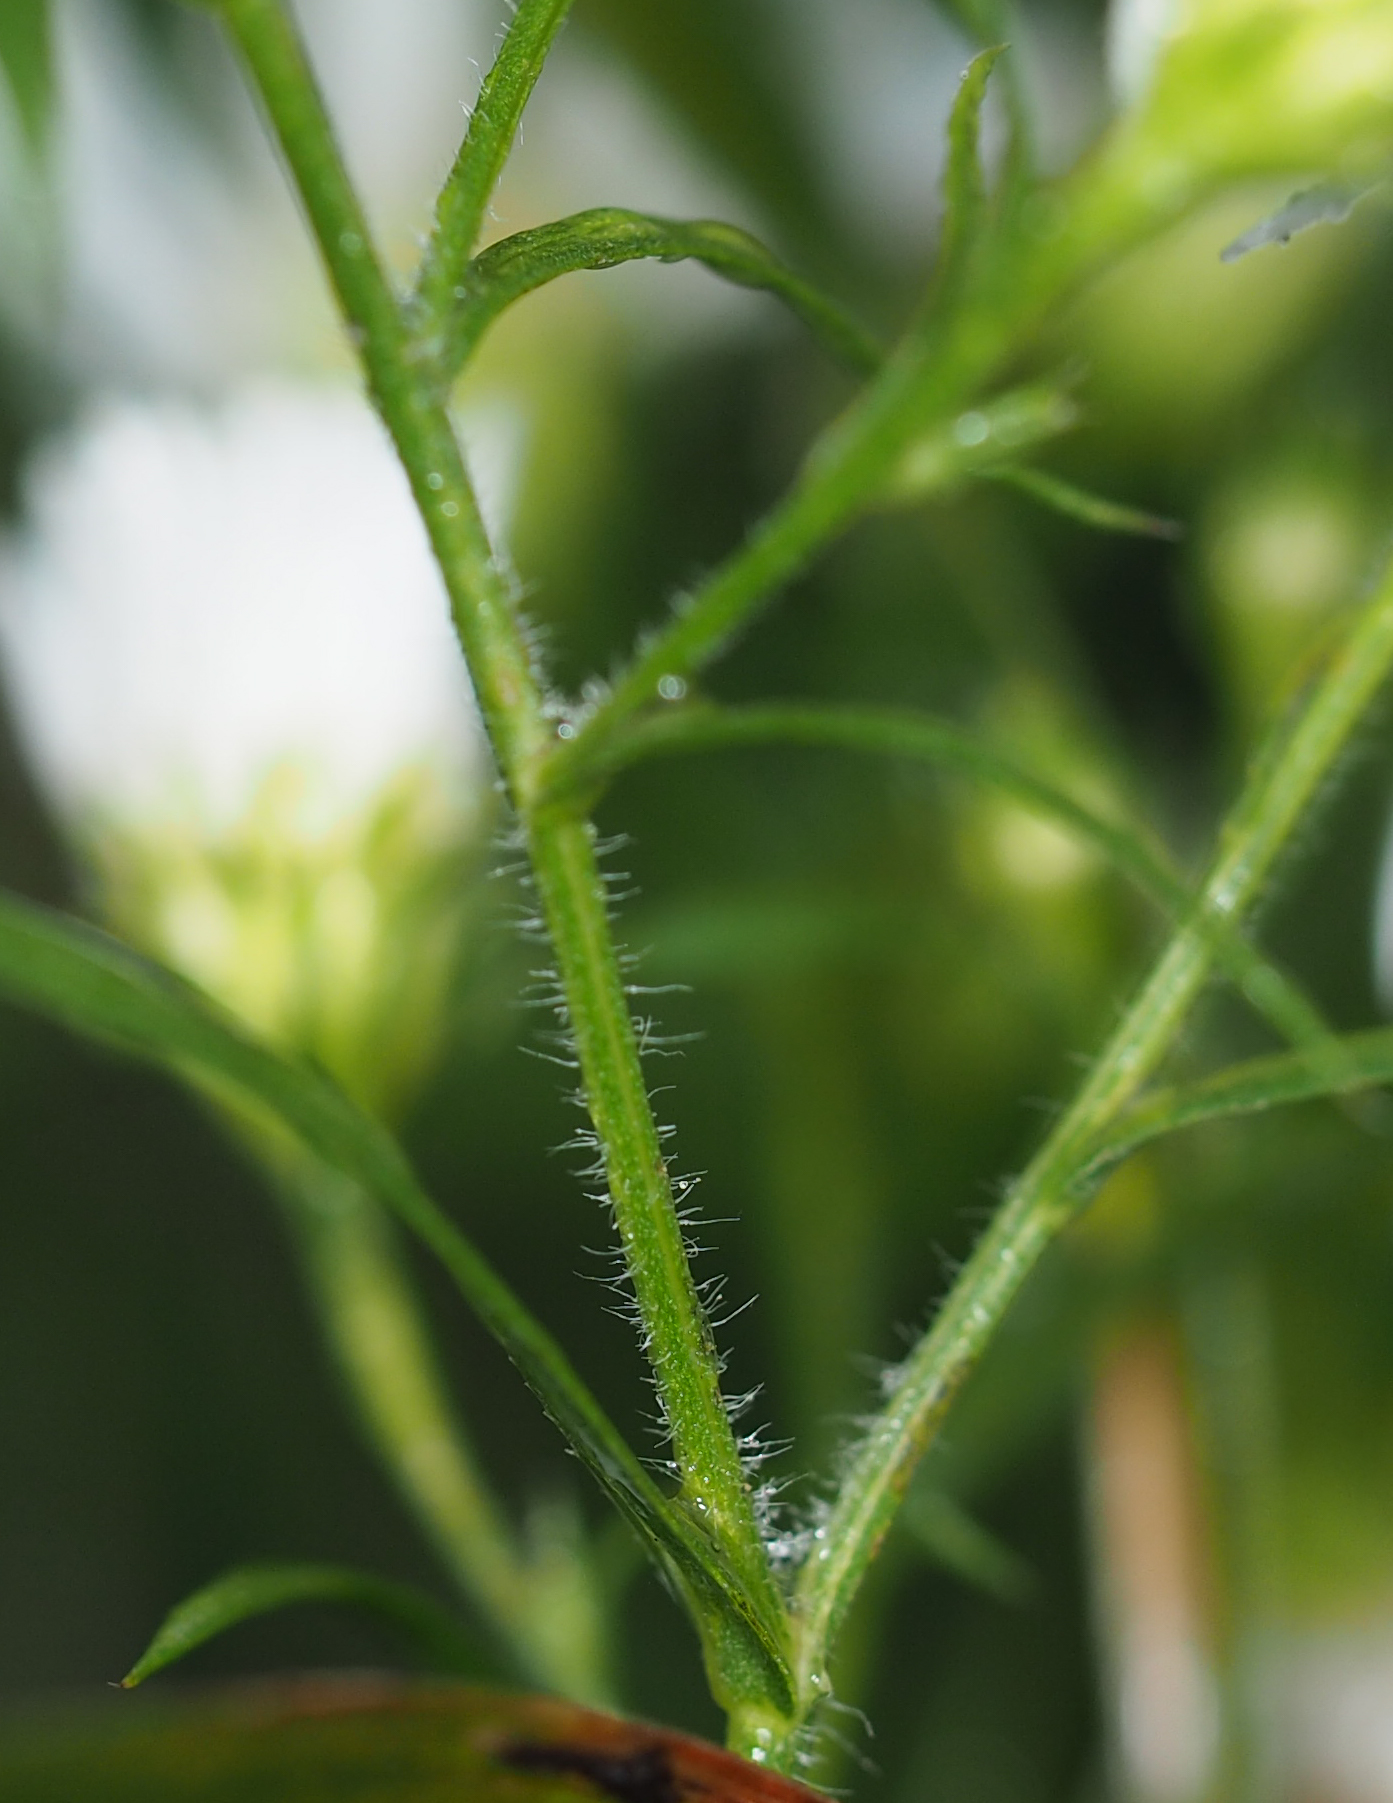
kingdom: Plantae
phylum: Tracheophyta
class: Magnoliopsida
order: Asterales
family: Asteraceae
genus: Symphyotrichum
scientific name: Symphyotrichum pilosum
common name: Awl aster
